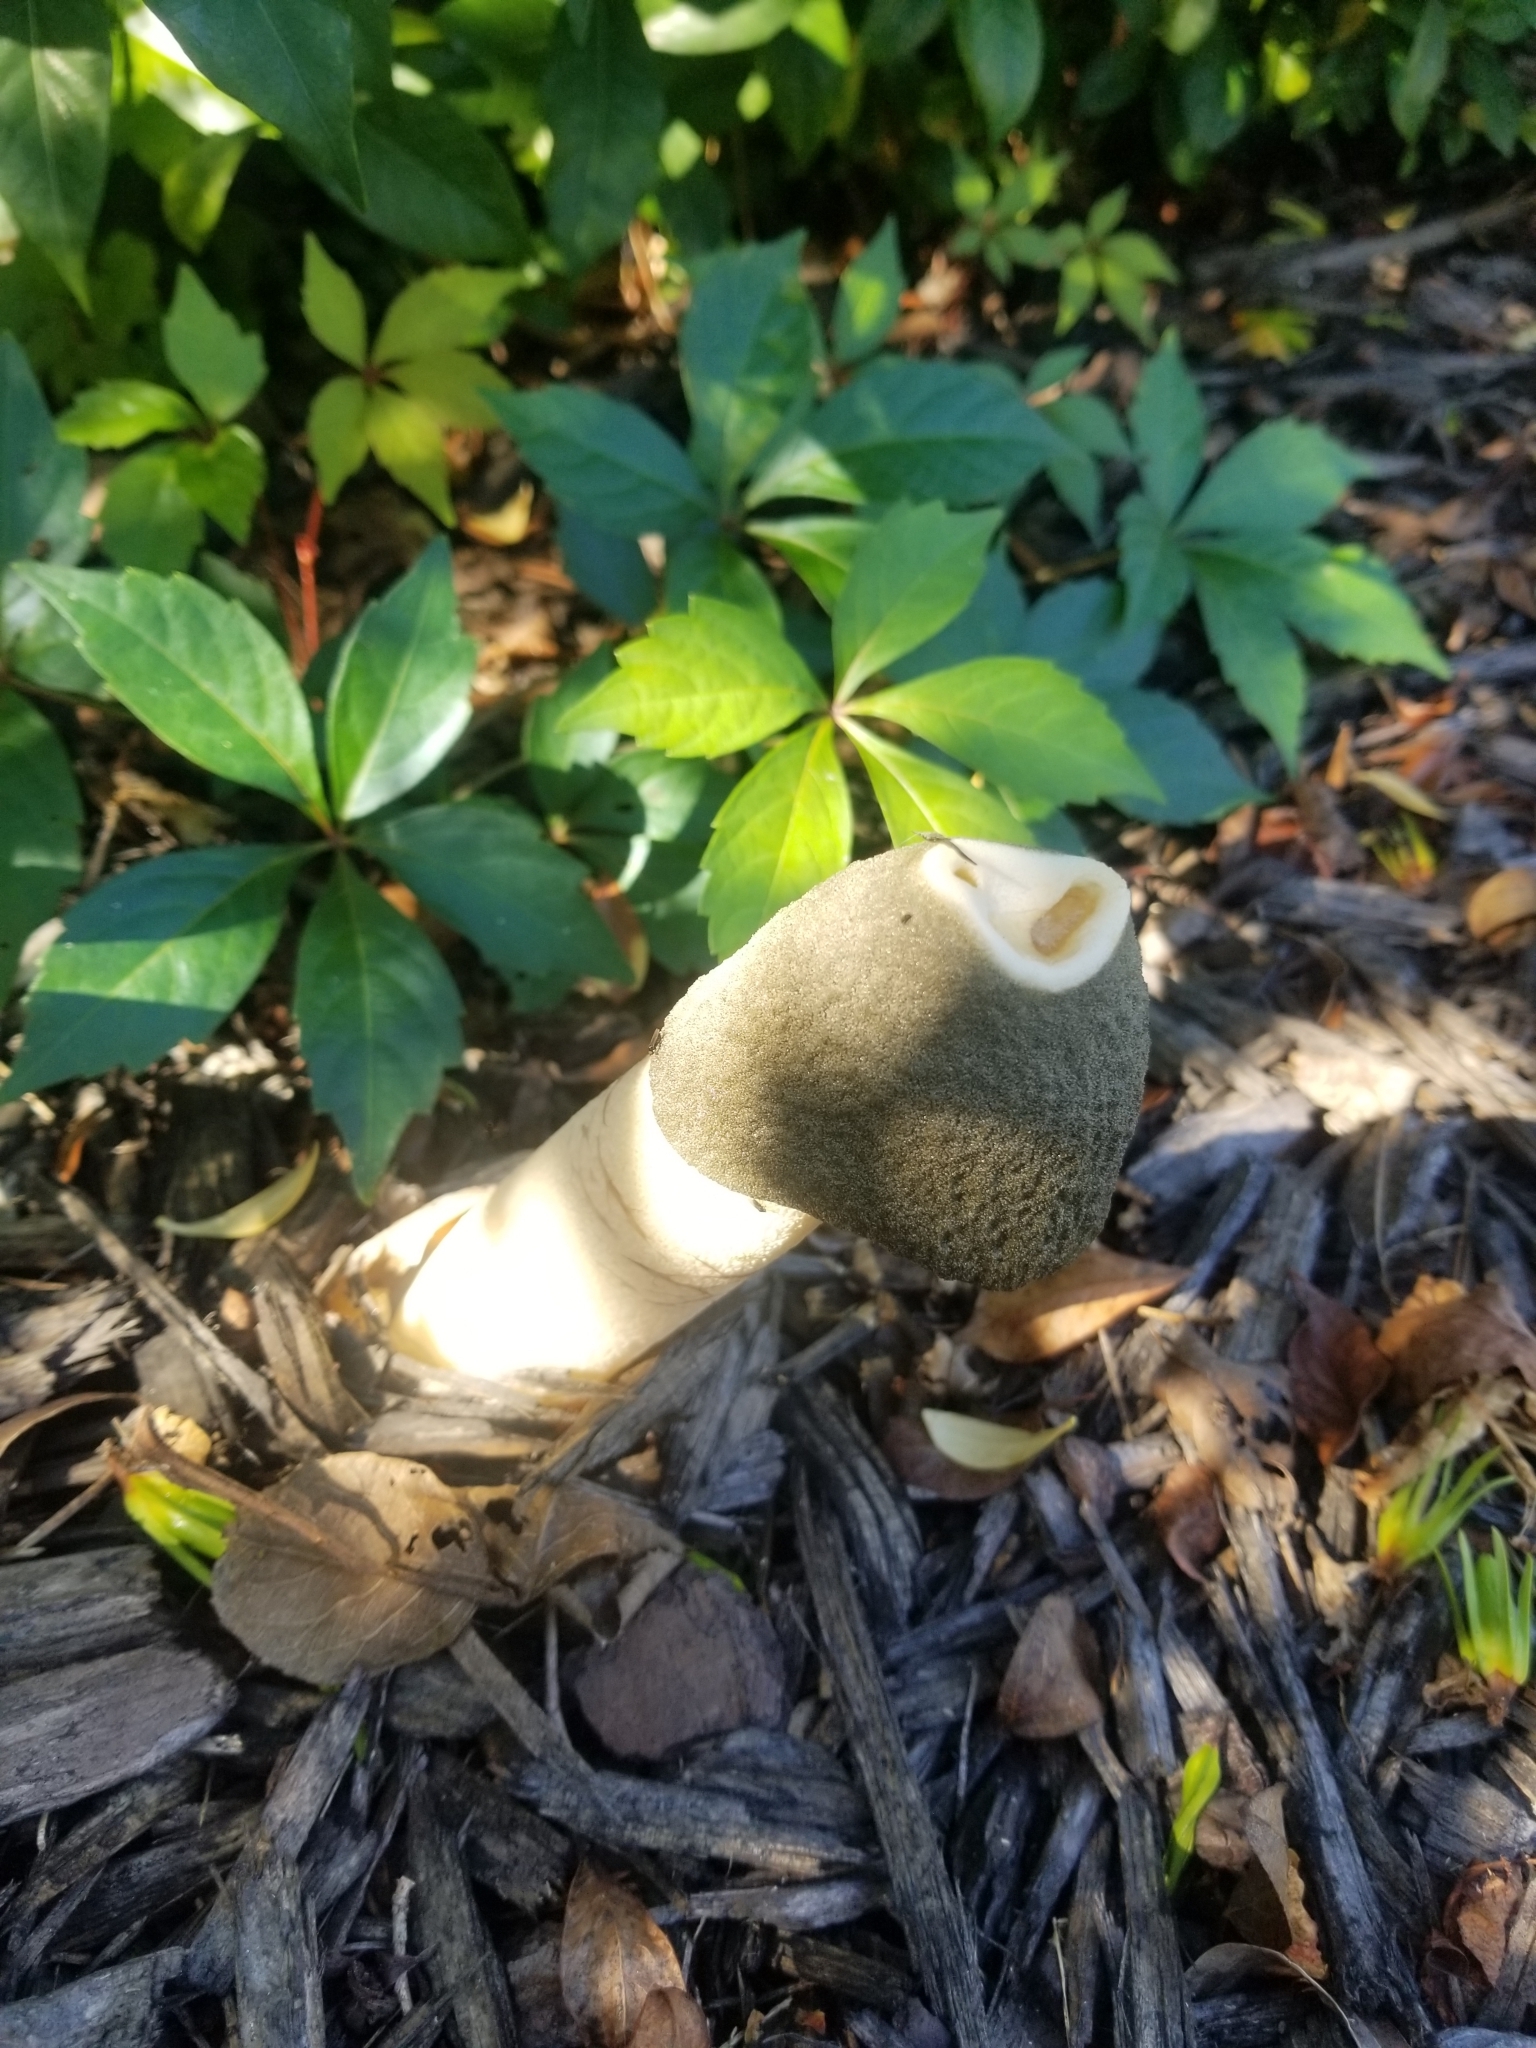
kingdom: Fungi
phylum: Basidiomycota
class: Agaricomycetes
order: Phallales
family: Phallaceae
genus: Phallus
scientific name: Phallus ravenelii
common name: Ravenel's stinkhorn
